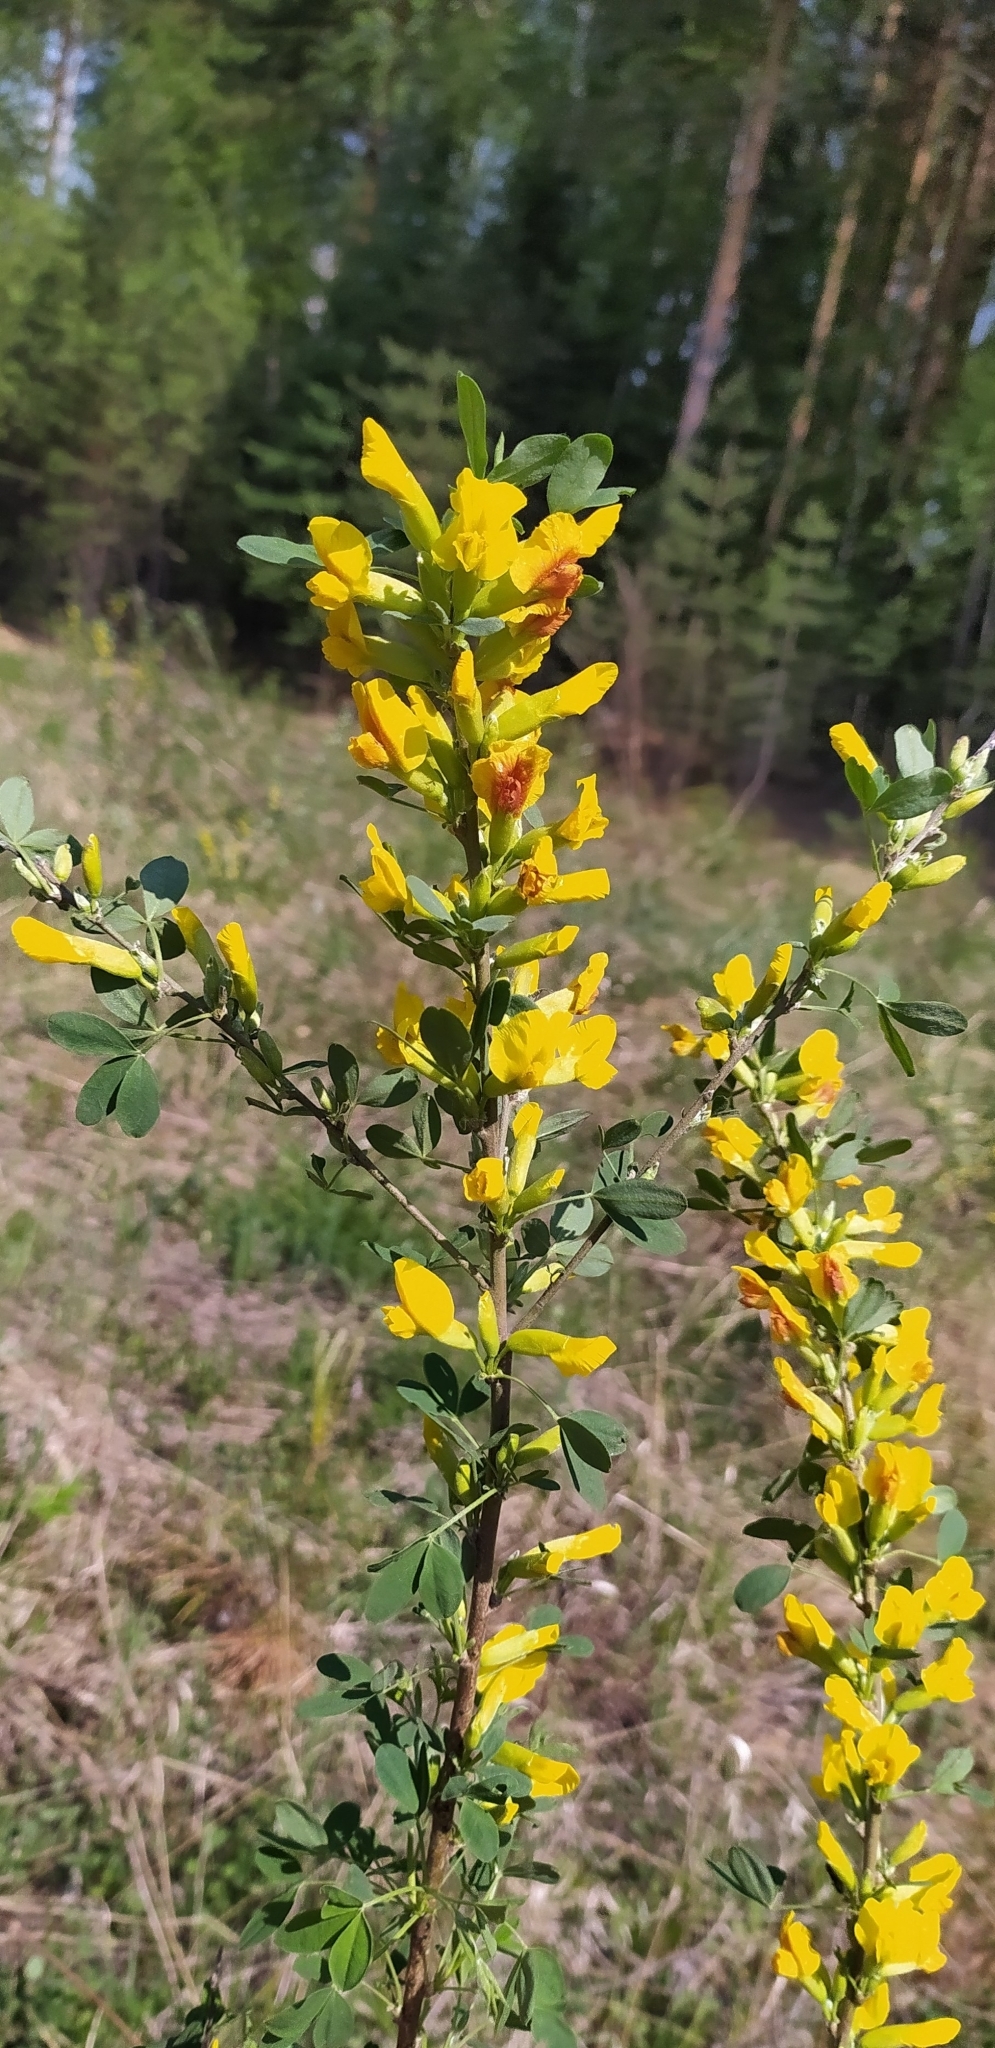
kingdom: Plantae
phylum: Tracheophyta
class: Magnoliopsida
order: Fabales
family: Fabaceae
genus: Chamaecytisus
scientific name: Chamaecytisus ruthenicus
